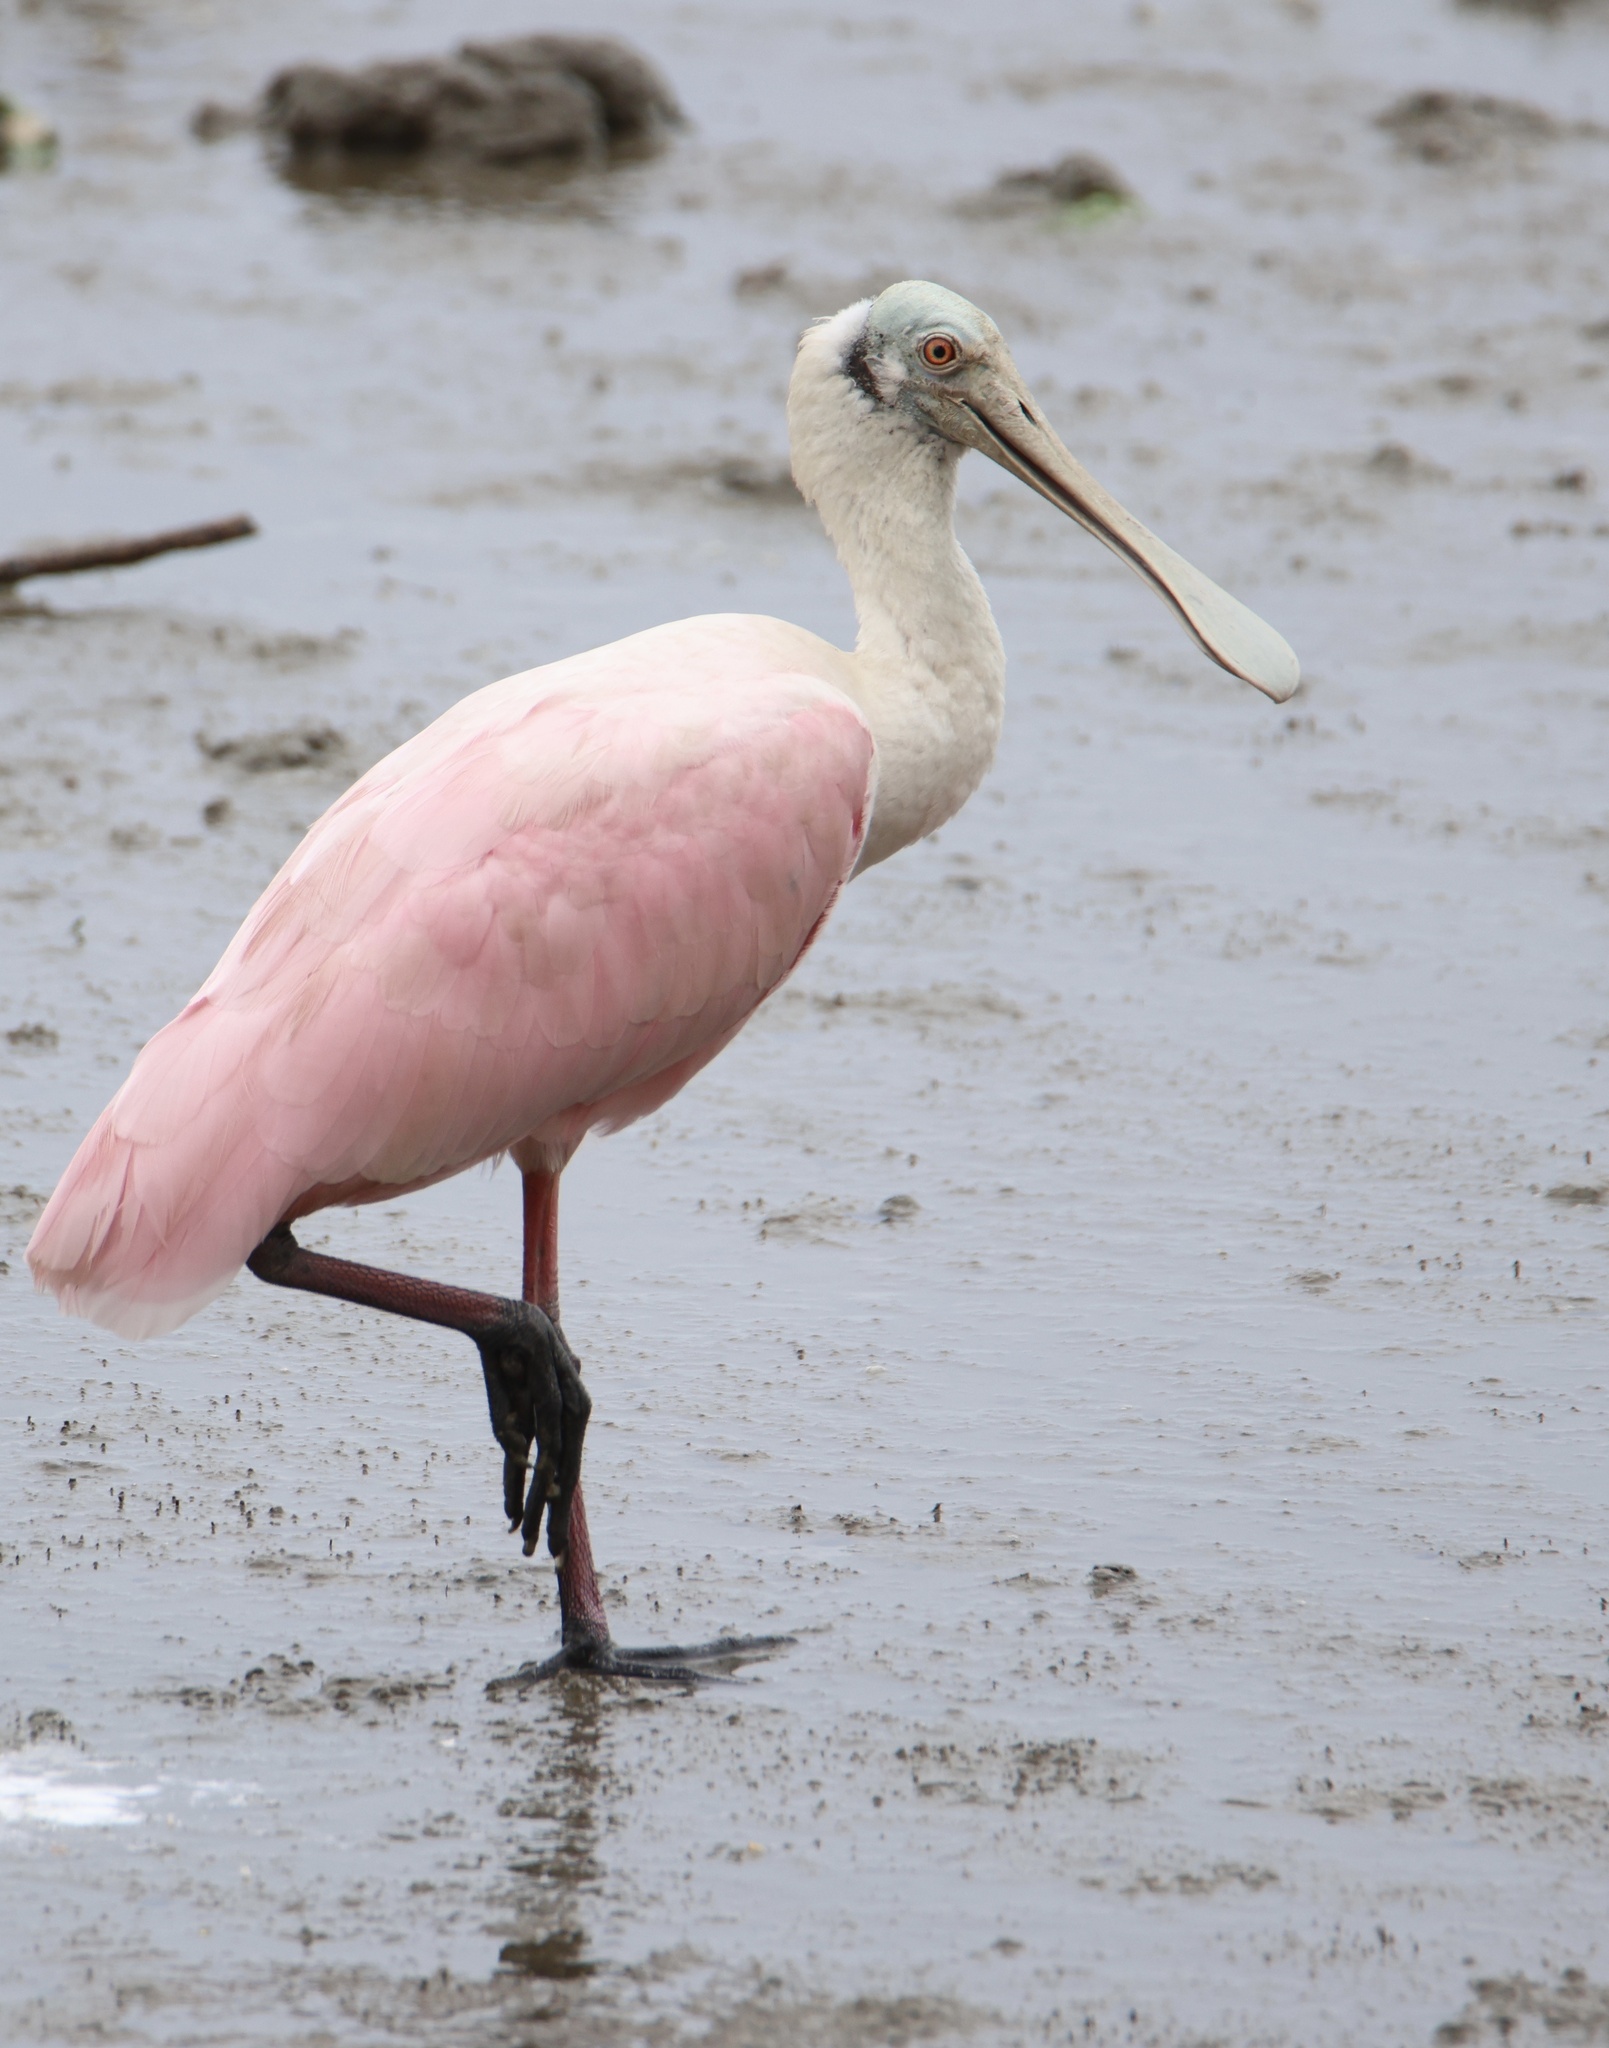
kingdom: Animalia
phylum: Chordata
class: Aves
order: Pelecaniformes
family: Threskiornithidae
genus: Platalea
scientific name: Platalea ajaja
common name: Roseate spoonbill
